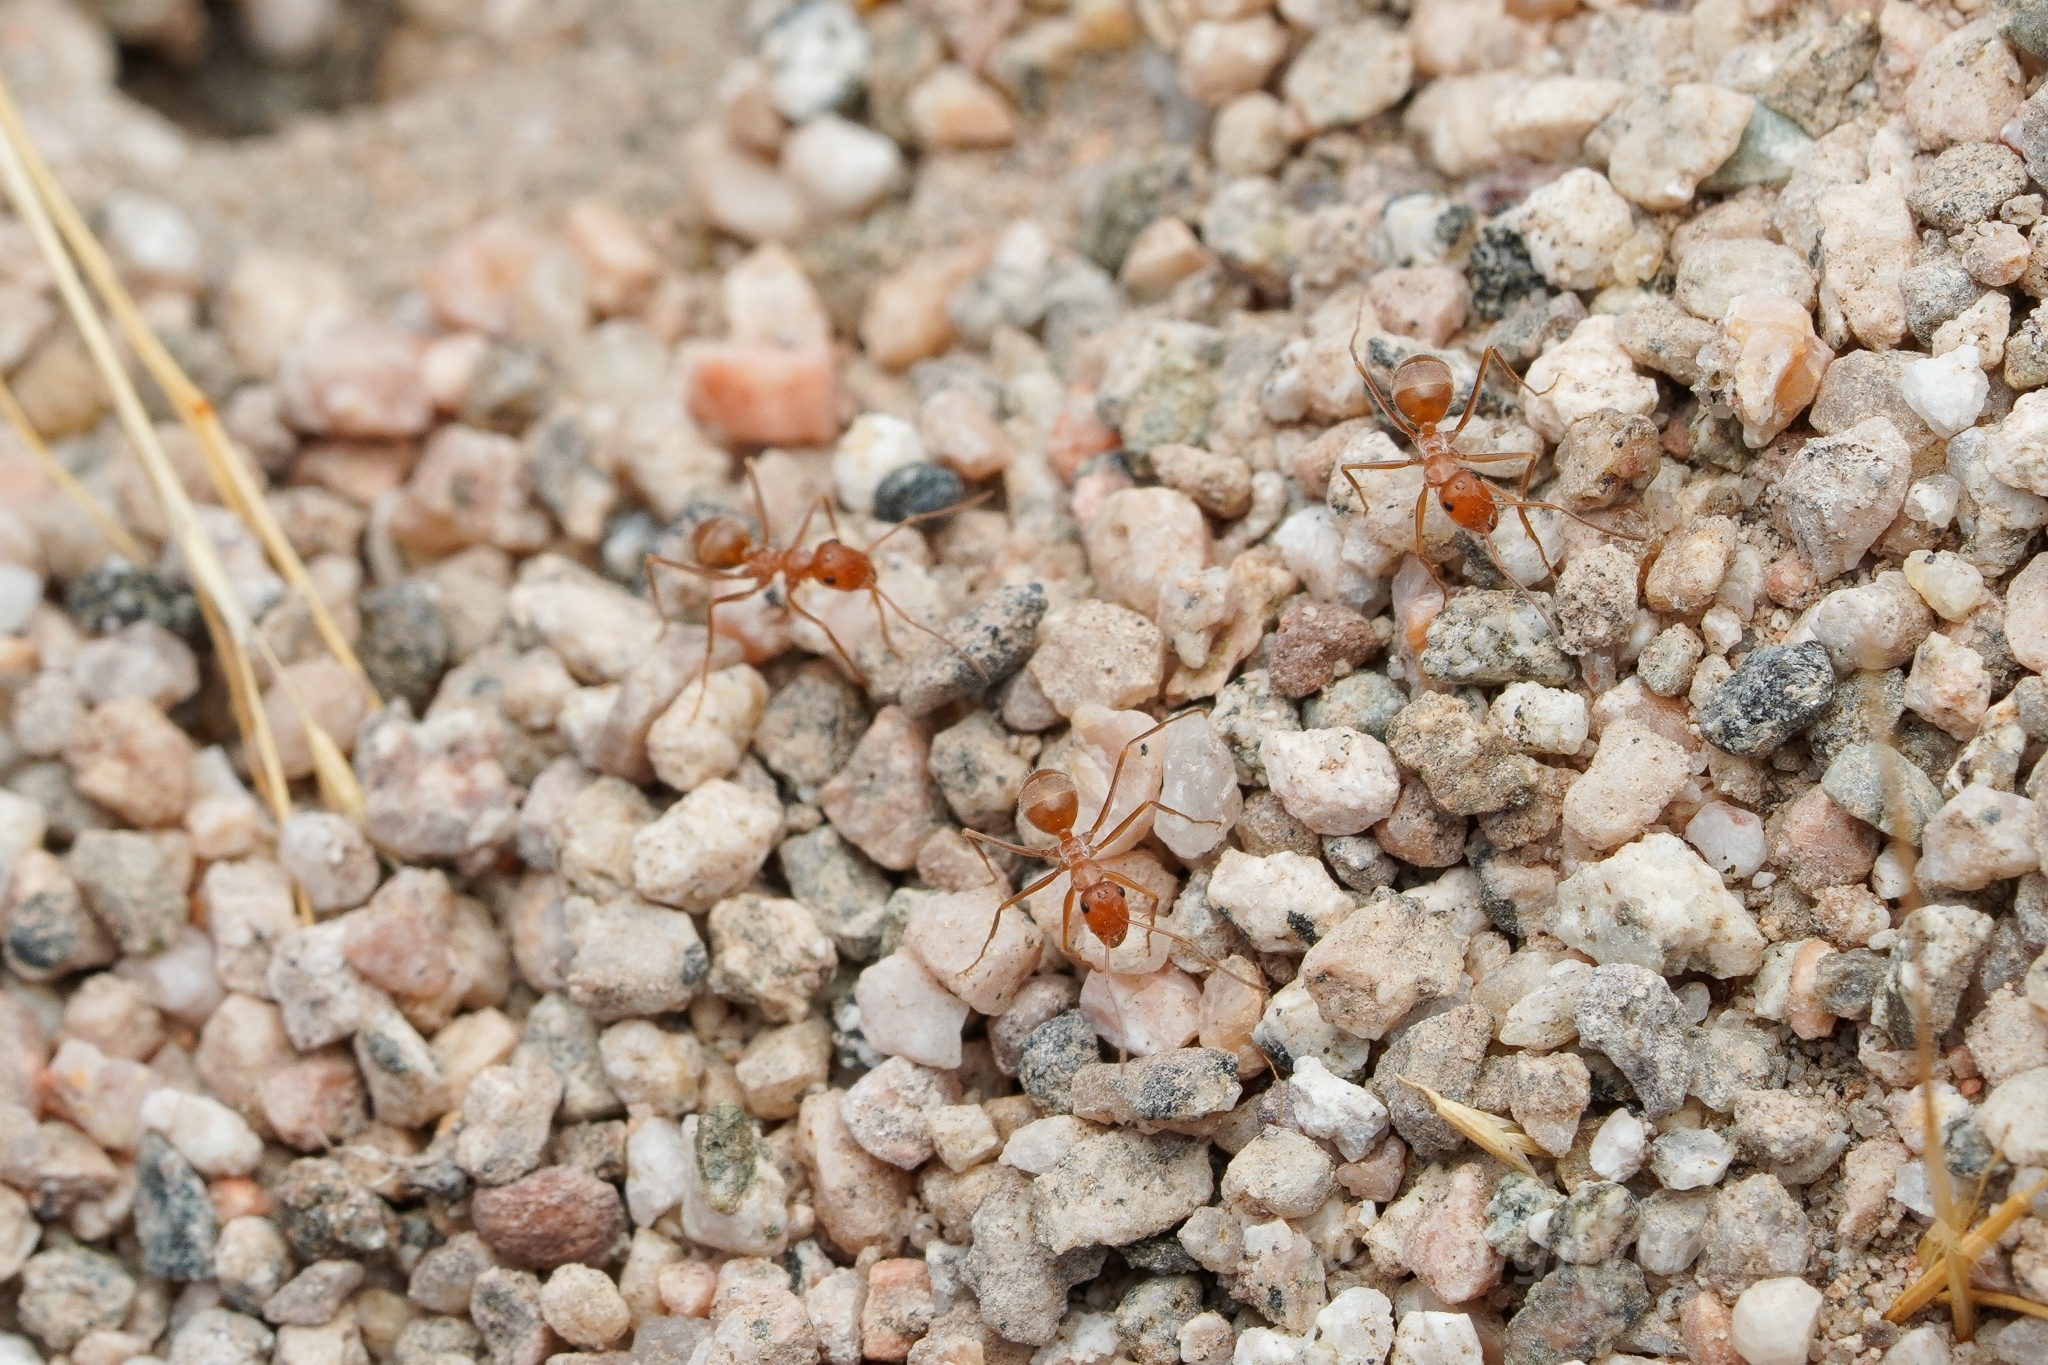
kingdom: Animalia
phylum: Arthropoda
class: Insecta
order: Hymenoptera
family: Formicidae
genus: Myrmecocystus
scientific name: Myrmecocystus wheeleri
